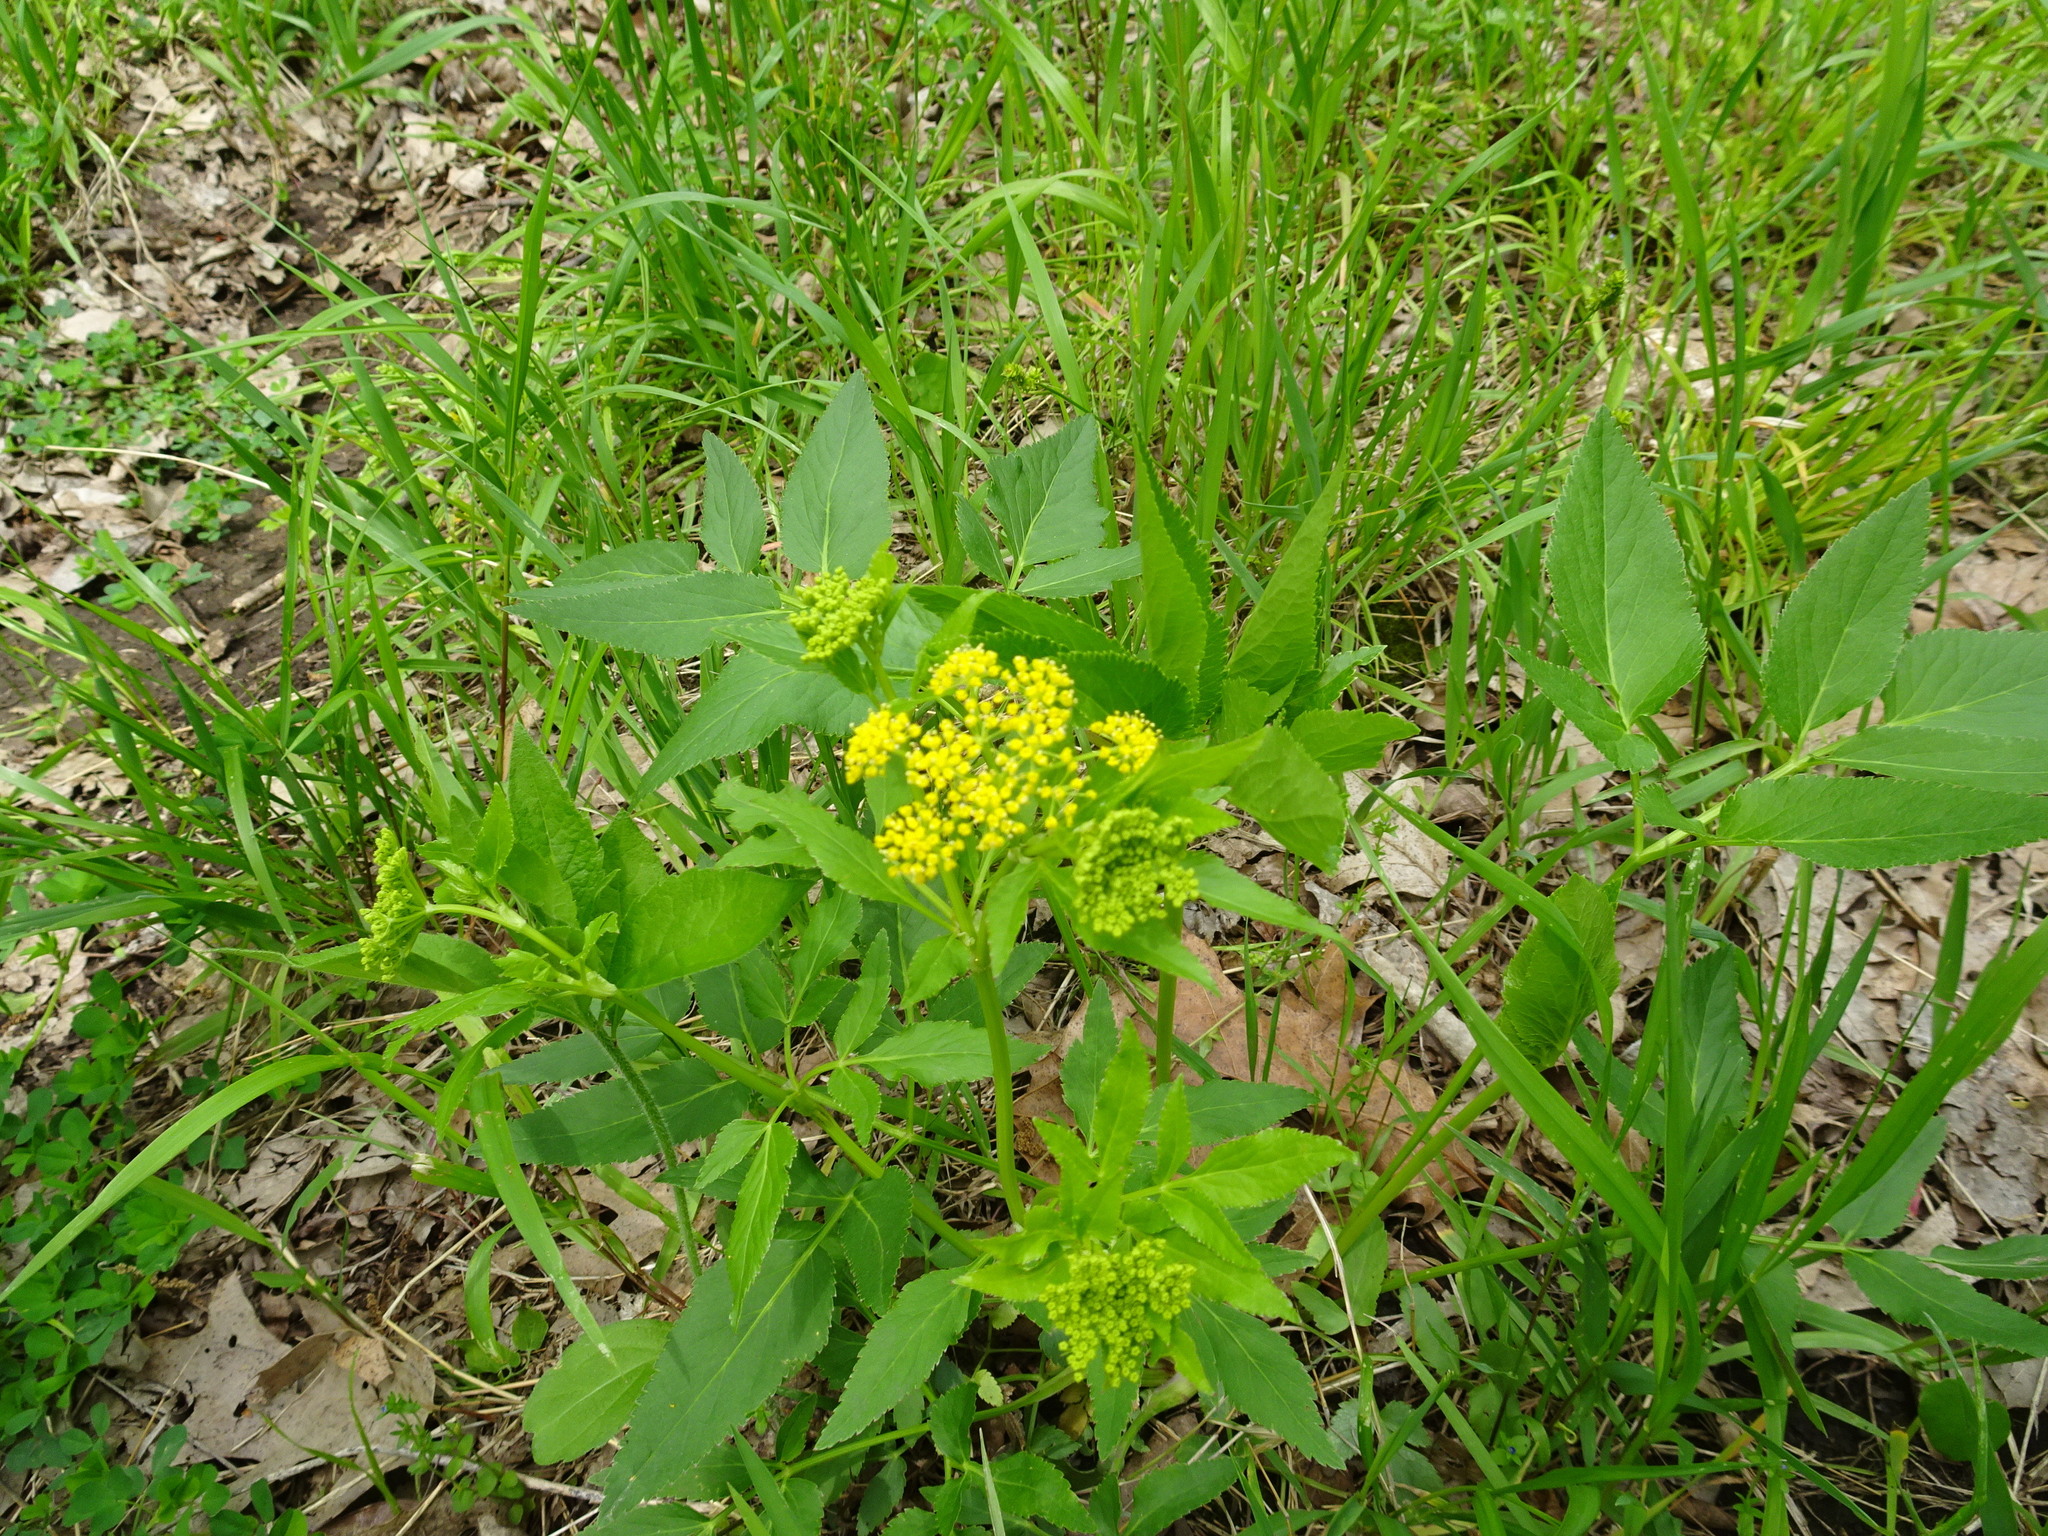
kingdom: Plantae
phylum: Tracheophyta
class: Magnoliopsida
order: Apiales
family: Apiaceae
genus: Zizia
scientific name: Zizia aurea
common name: Golden alexanders
